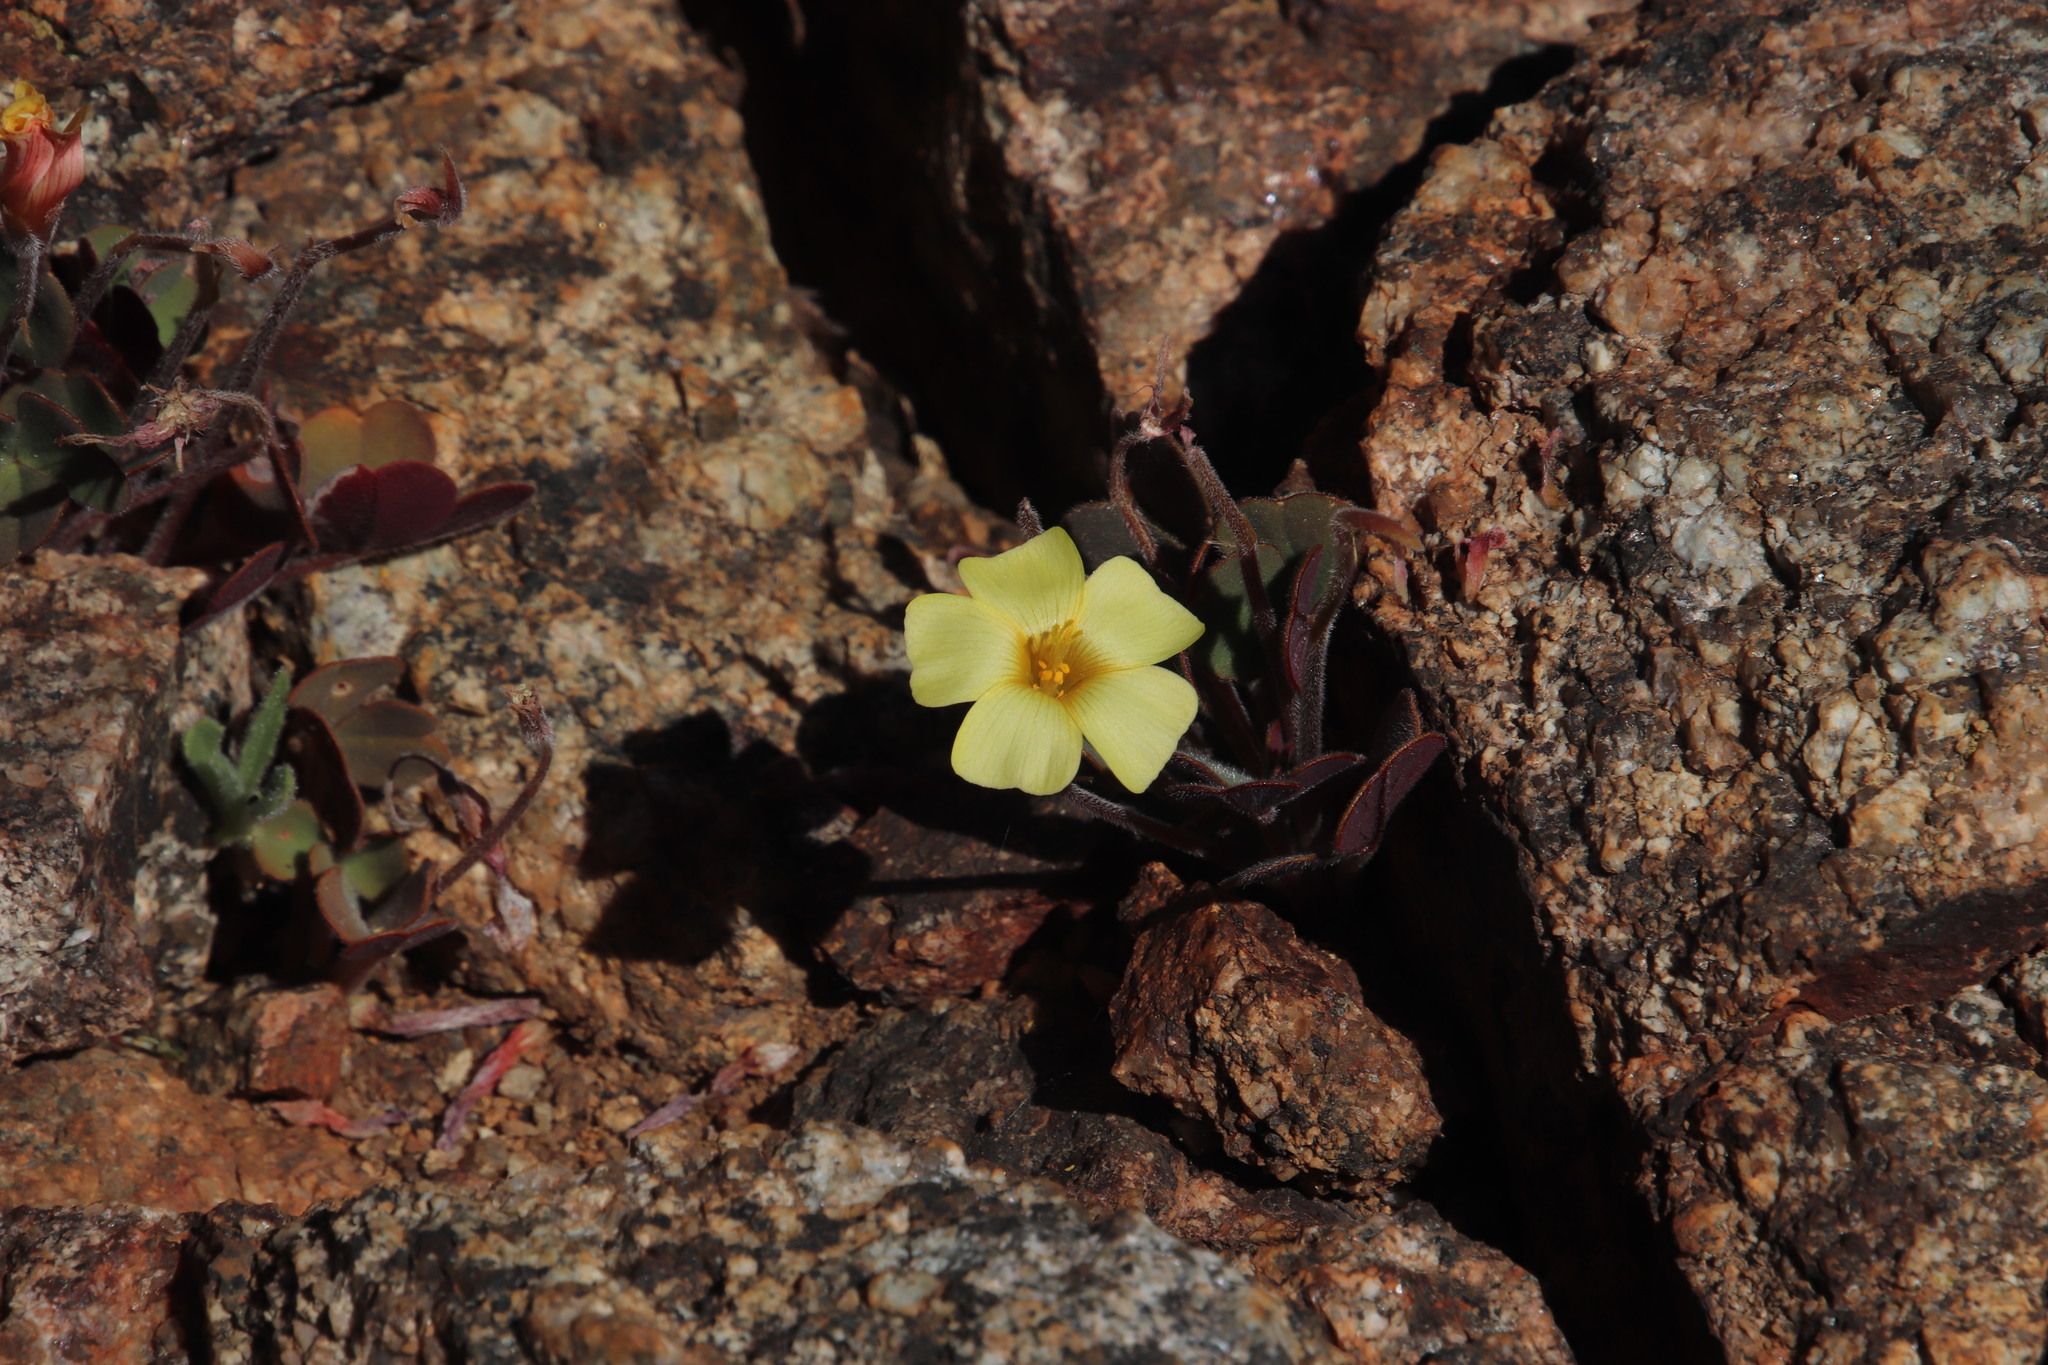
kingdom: Plantae
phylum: Tracheophyta
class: Magnoliopsida
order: Oxalidales
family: Oxalidaceae
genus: Oxalis
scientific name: Oxalis obtusa
